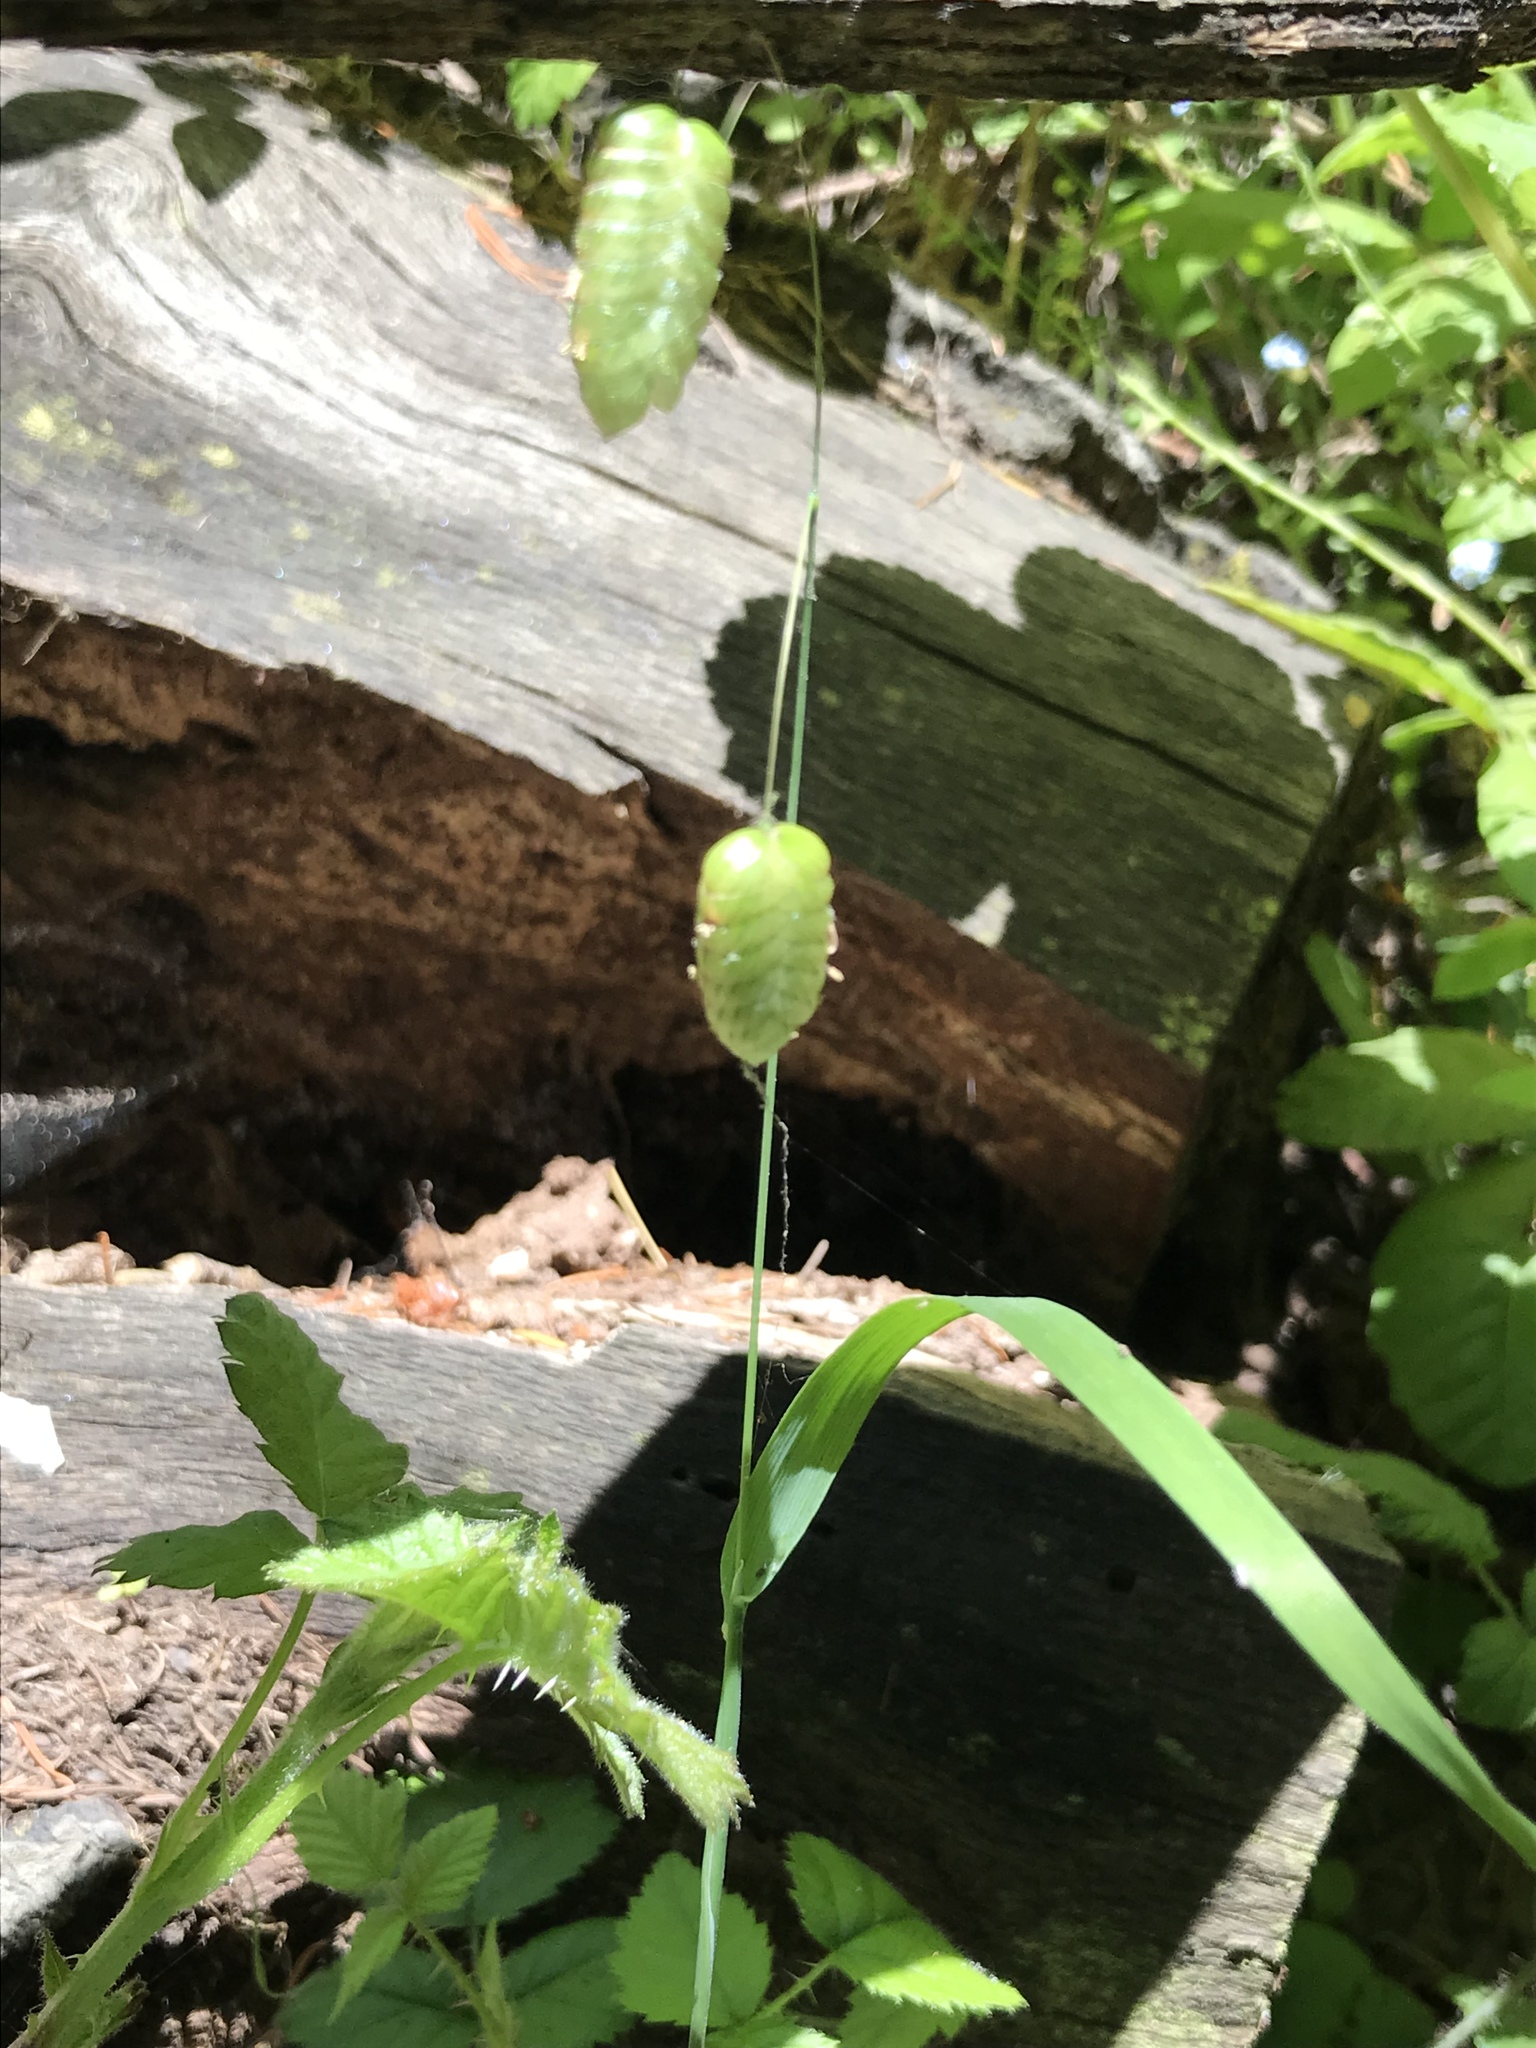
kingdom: Plantae
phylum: Tracheophyta
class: Liliopsida
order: Poales
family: Poaceae
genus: Briza
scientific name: Briza maxima
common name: Big quakinggrass
